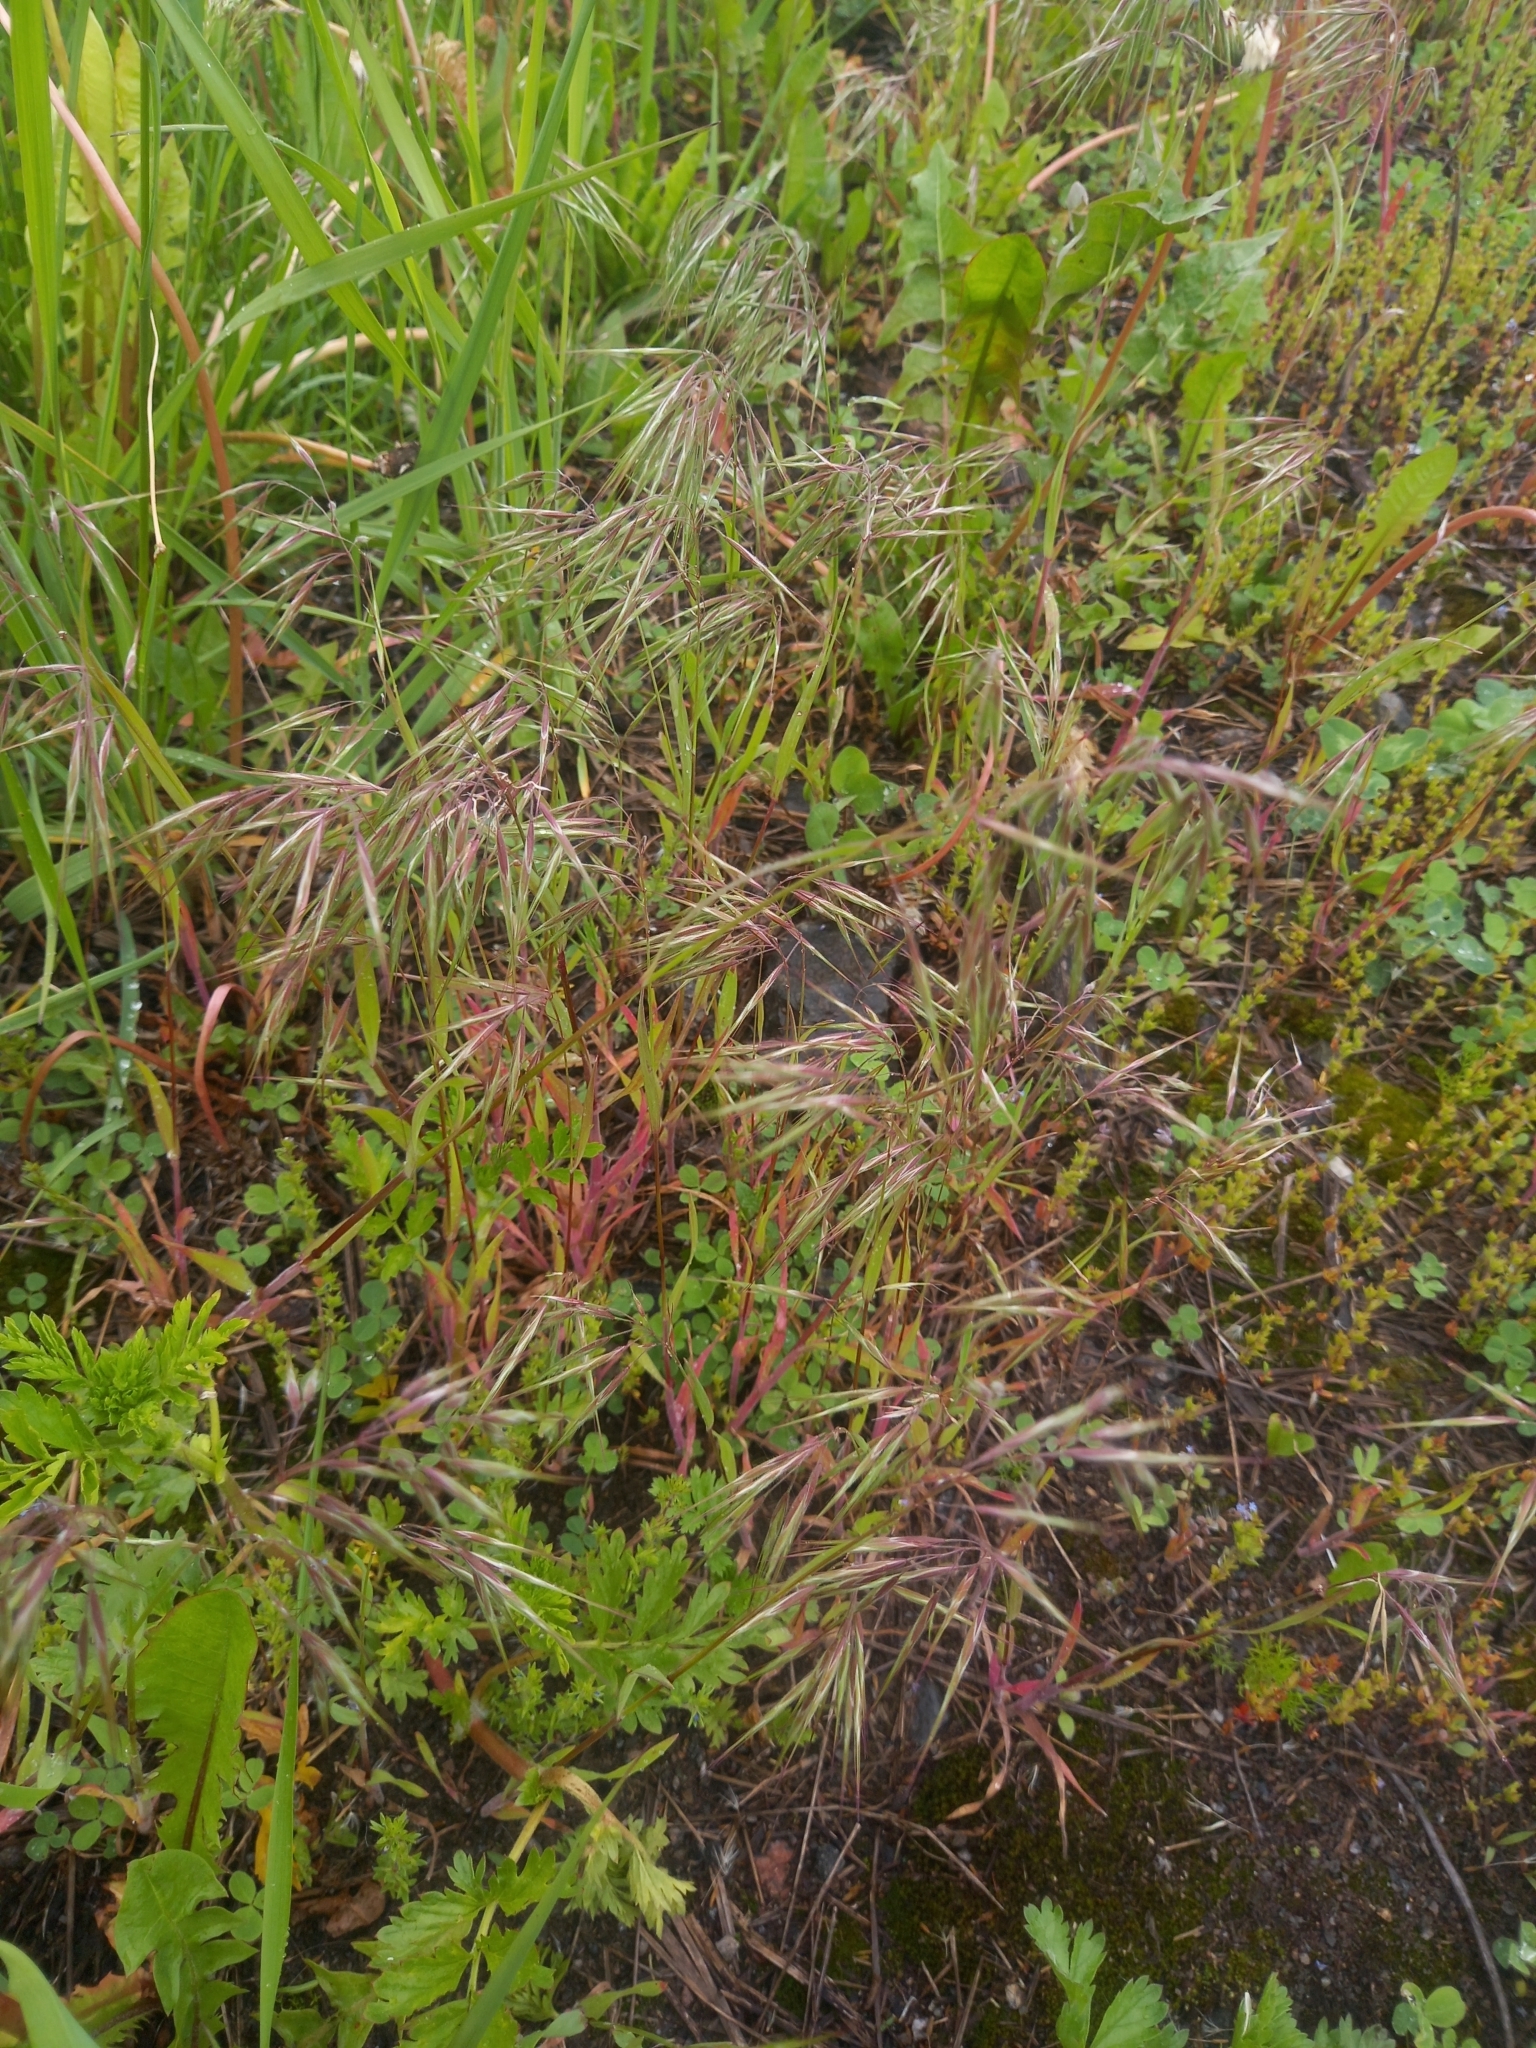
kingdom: Plantae
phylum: Tracheophyta
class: Liliopsida
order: Poales
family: Poaceae
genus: Bromus
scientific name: Bromus tectorum
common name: Cheatgrass
